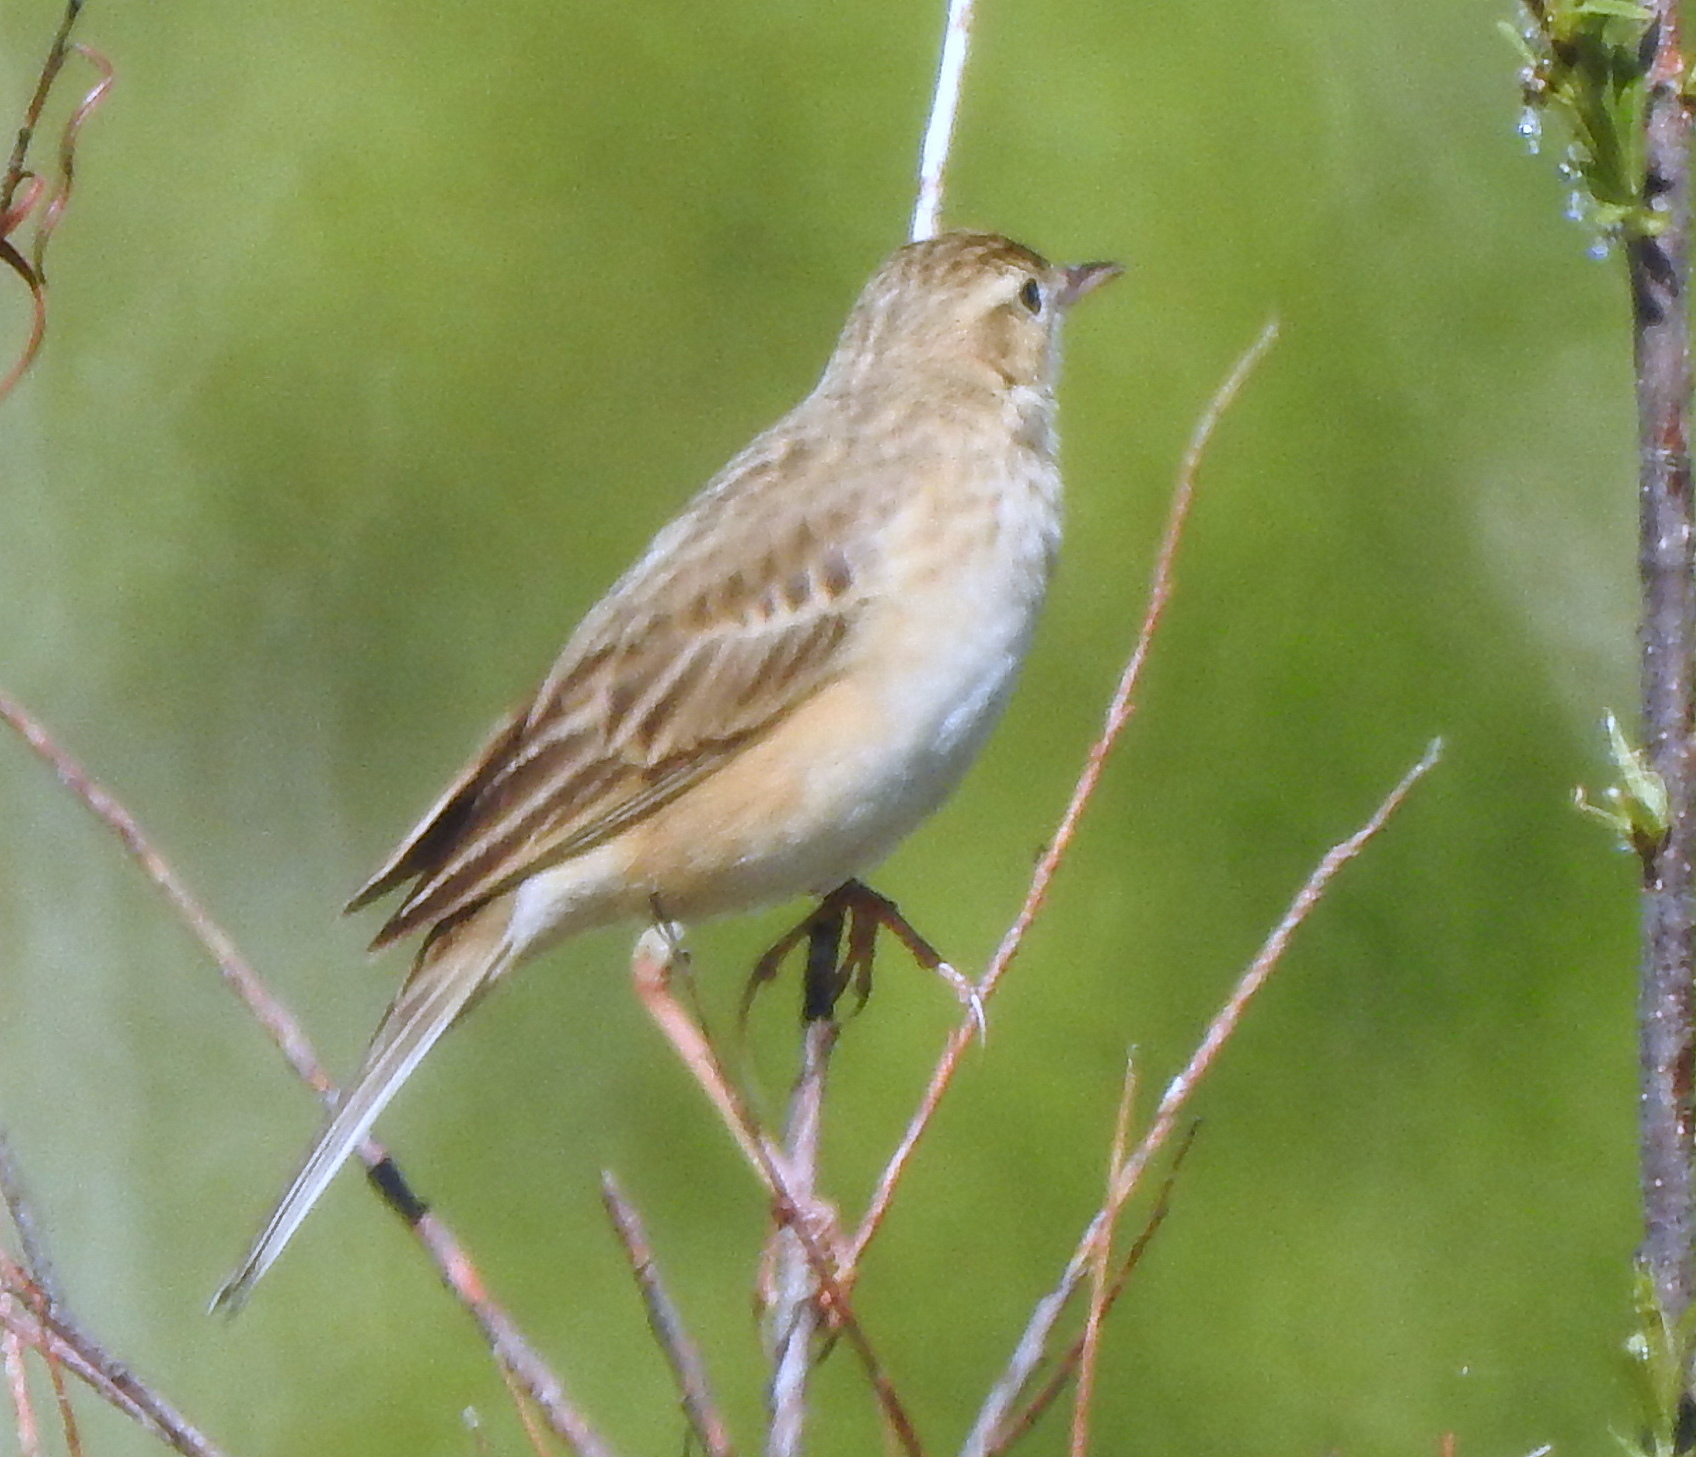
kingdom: Animalia
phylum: Chordata
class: Aves
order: Passeriformes
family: Motacillidae
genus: Anthus
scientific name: Anthus richardi
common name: Richard's pipit
